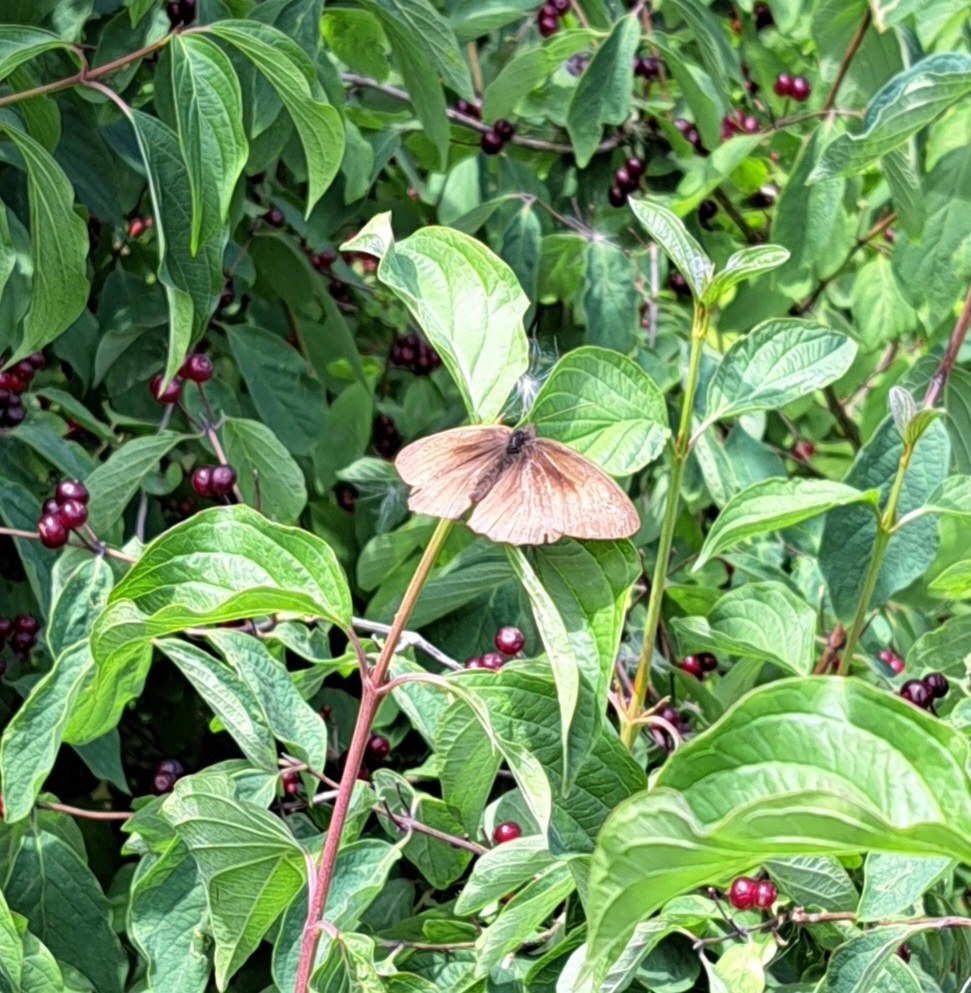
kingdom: Animalia
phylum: Arthropoda
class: Insecta
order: Lepidoptera
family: Nymphalidae
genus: Maniola
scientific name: Maniola jurtina
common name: Meadow brown
